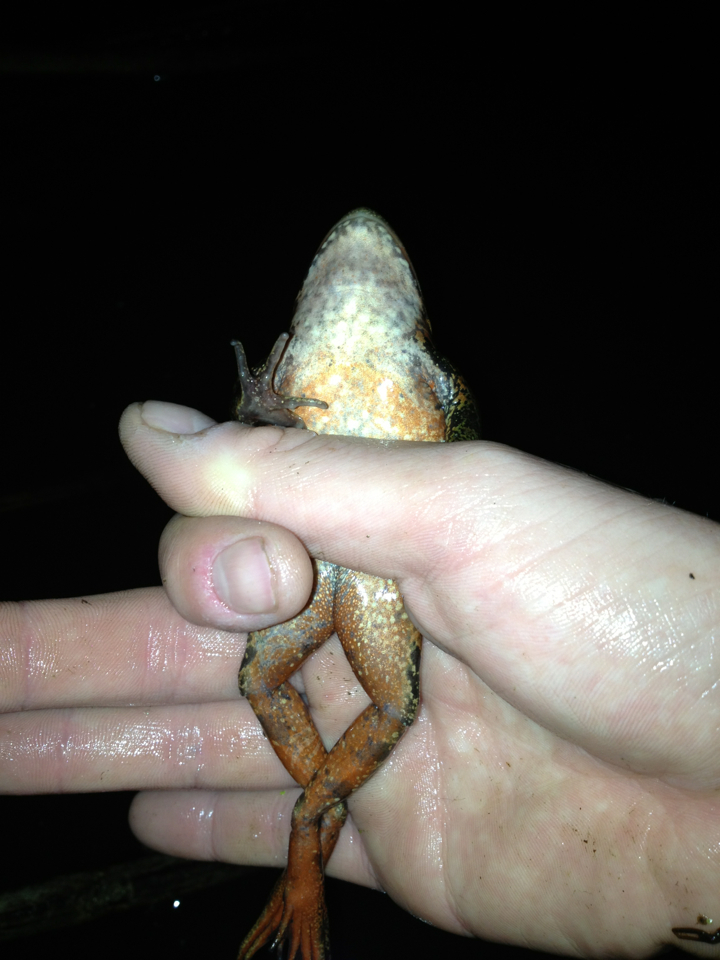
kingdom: Animalia
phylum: Chordata
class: Amphibia
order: Anura
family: Ranidae
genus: Rana
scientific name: Rana draytonii
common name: California red-legged frog
